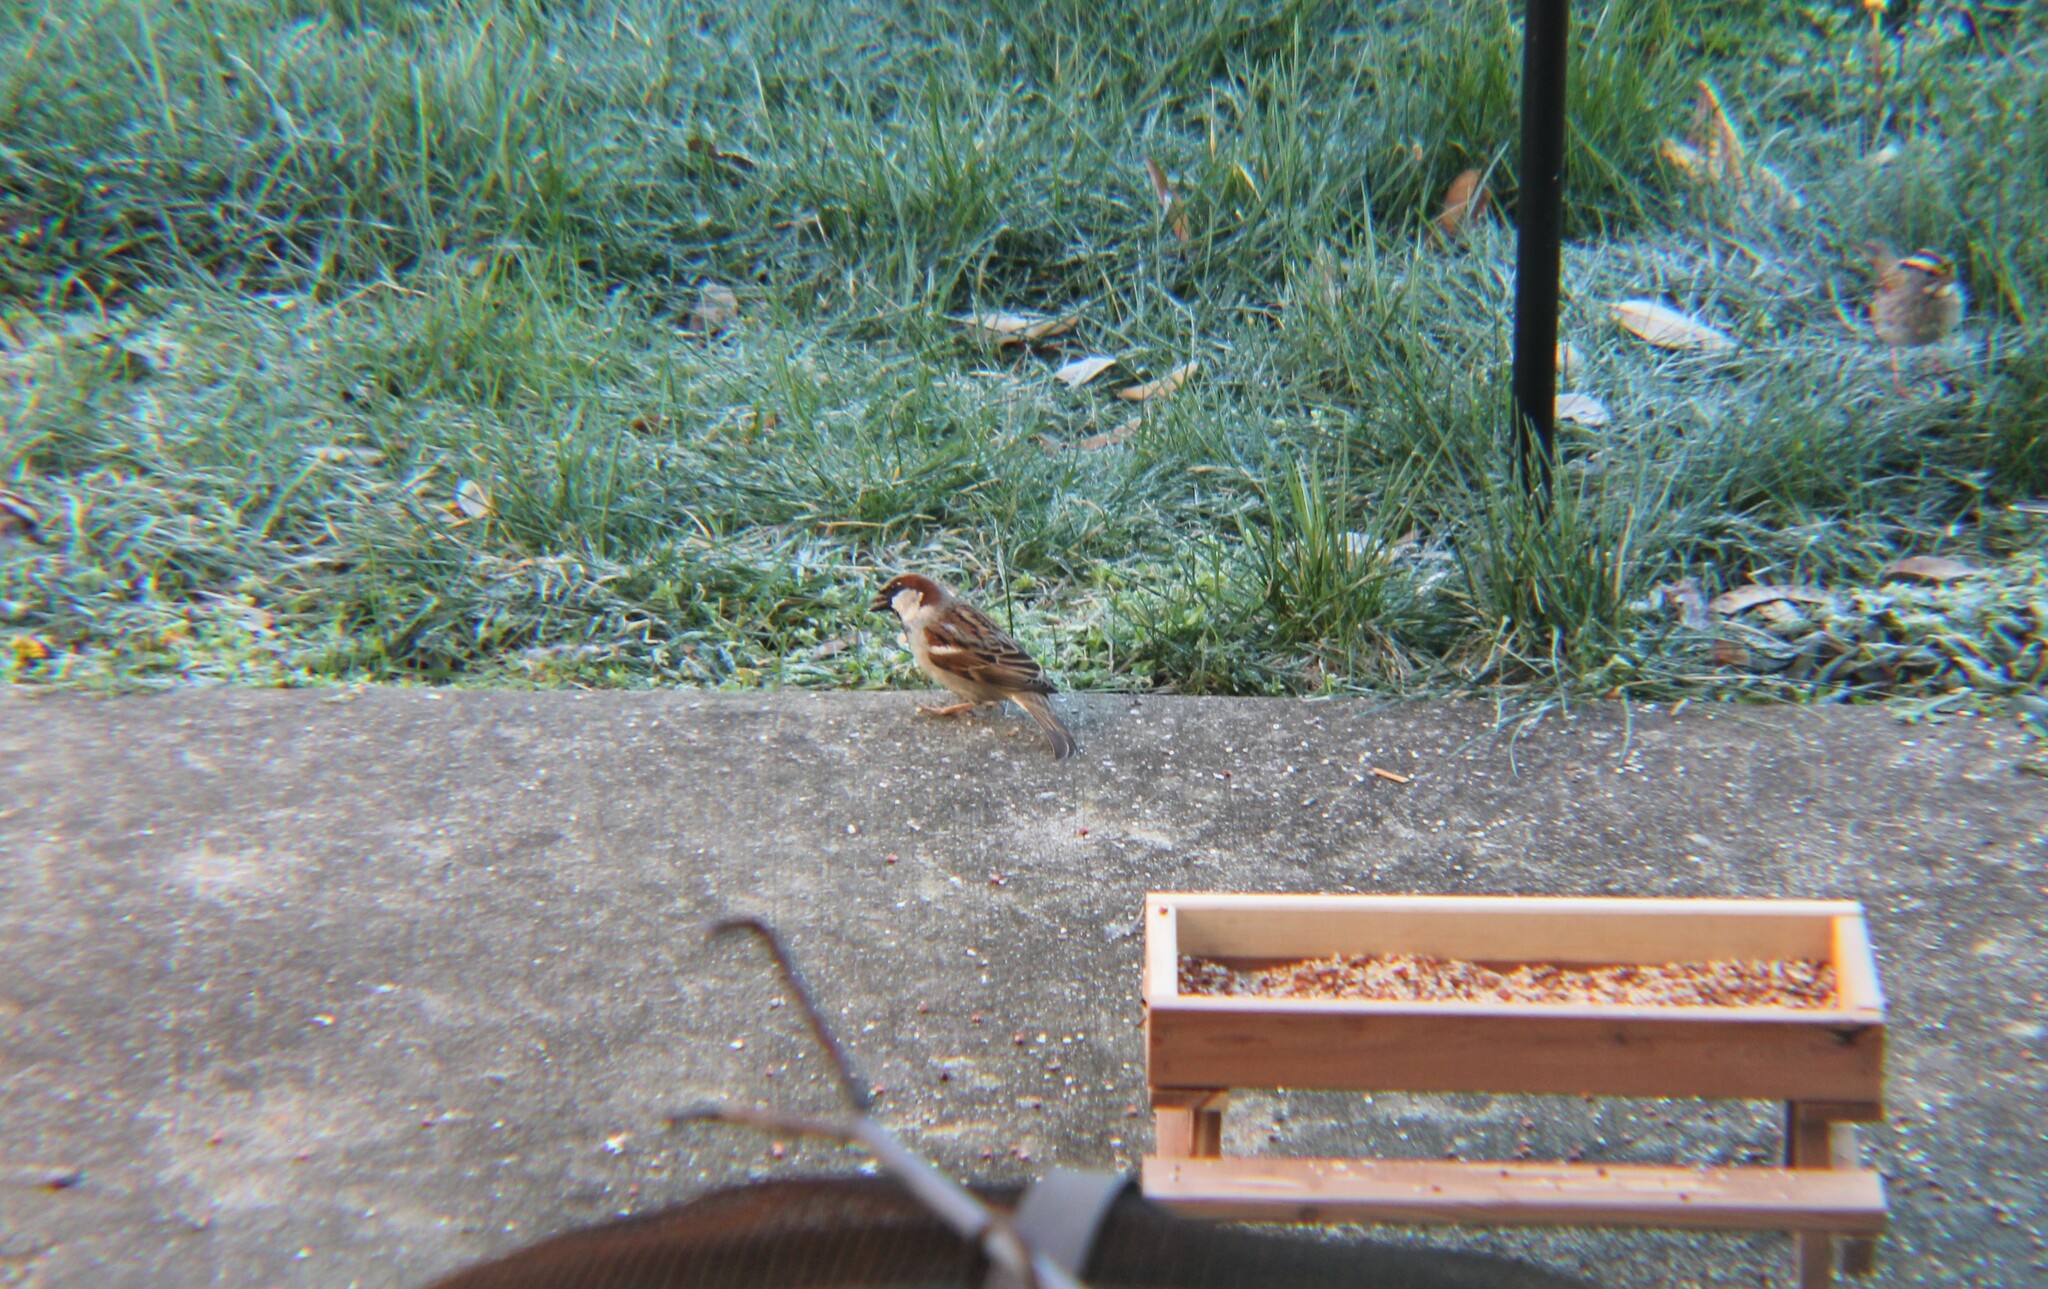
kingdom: Animalia
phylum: Chordata
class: Aves
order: Passeriformes
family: Passeridae
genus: Passer
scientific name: Passer domesticus
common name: House sparrow
